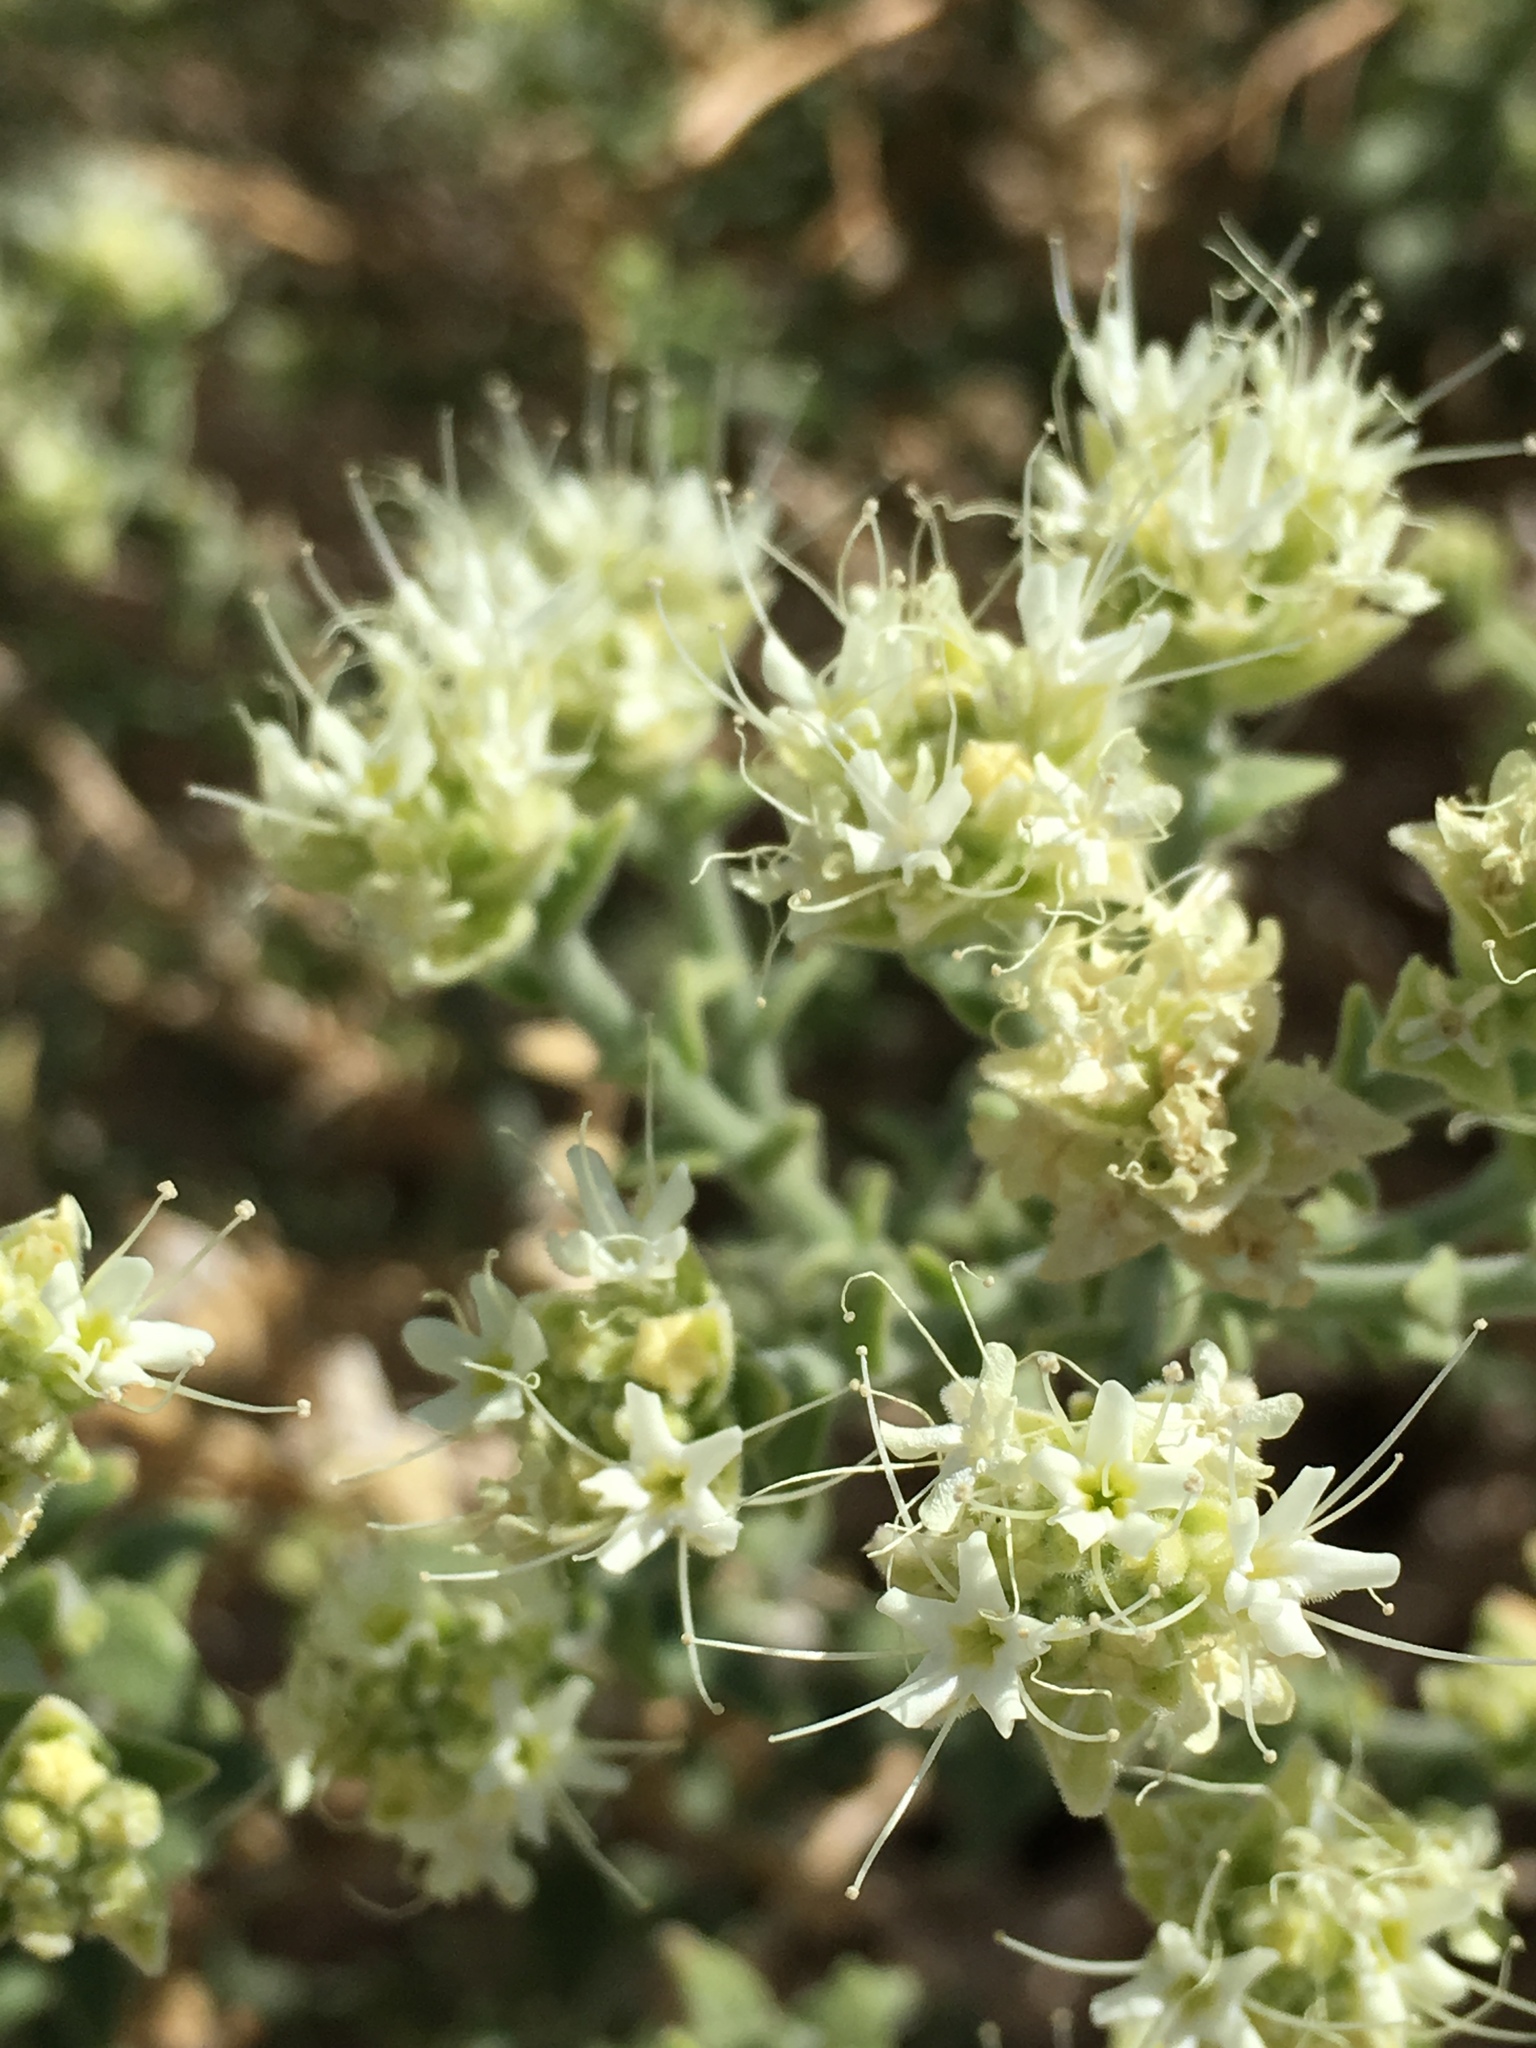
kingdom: Plantae
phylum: Tracheophyta
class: Magnoliopsida
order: Cornales
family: Loasaceae
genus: Petalonyx
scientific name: Petalonyx thurberi
